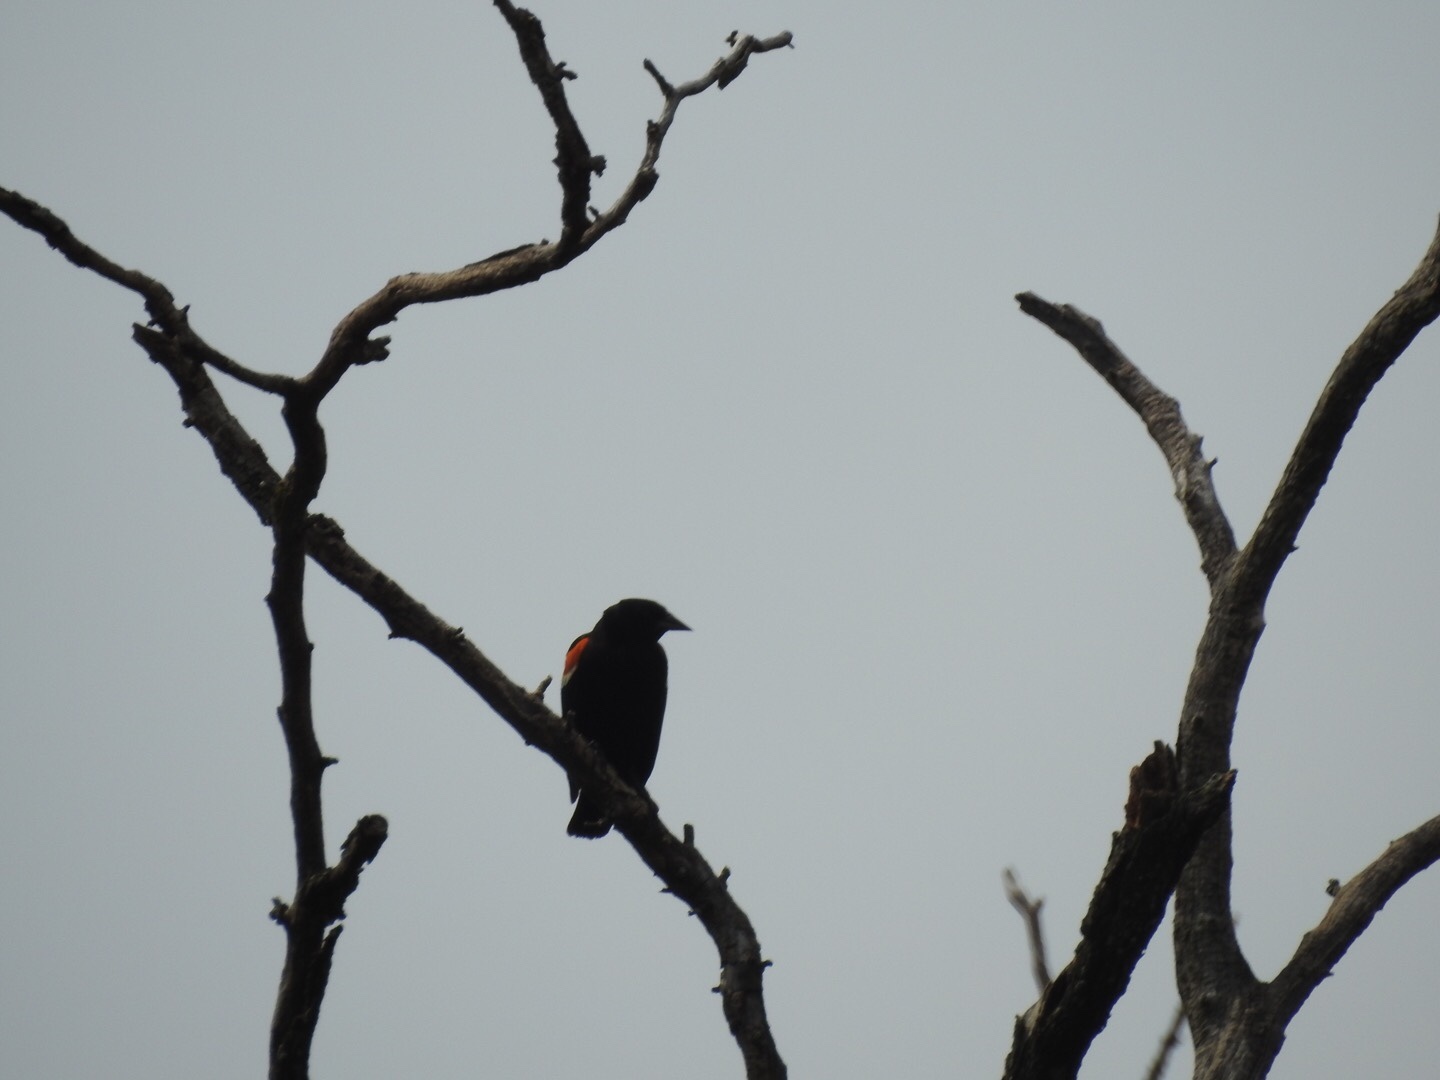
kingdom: Animalia
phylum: Chordata
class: Aves
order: Passeriformes
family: Icteridae
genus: Agelaius
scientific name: Agelaius phoeniceus
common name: Red-winged blackbird
